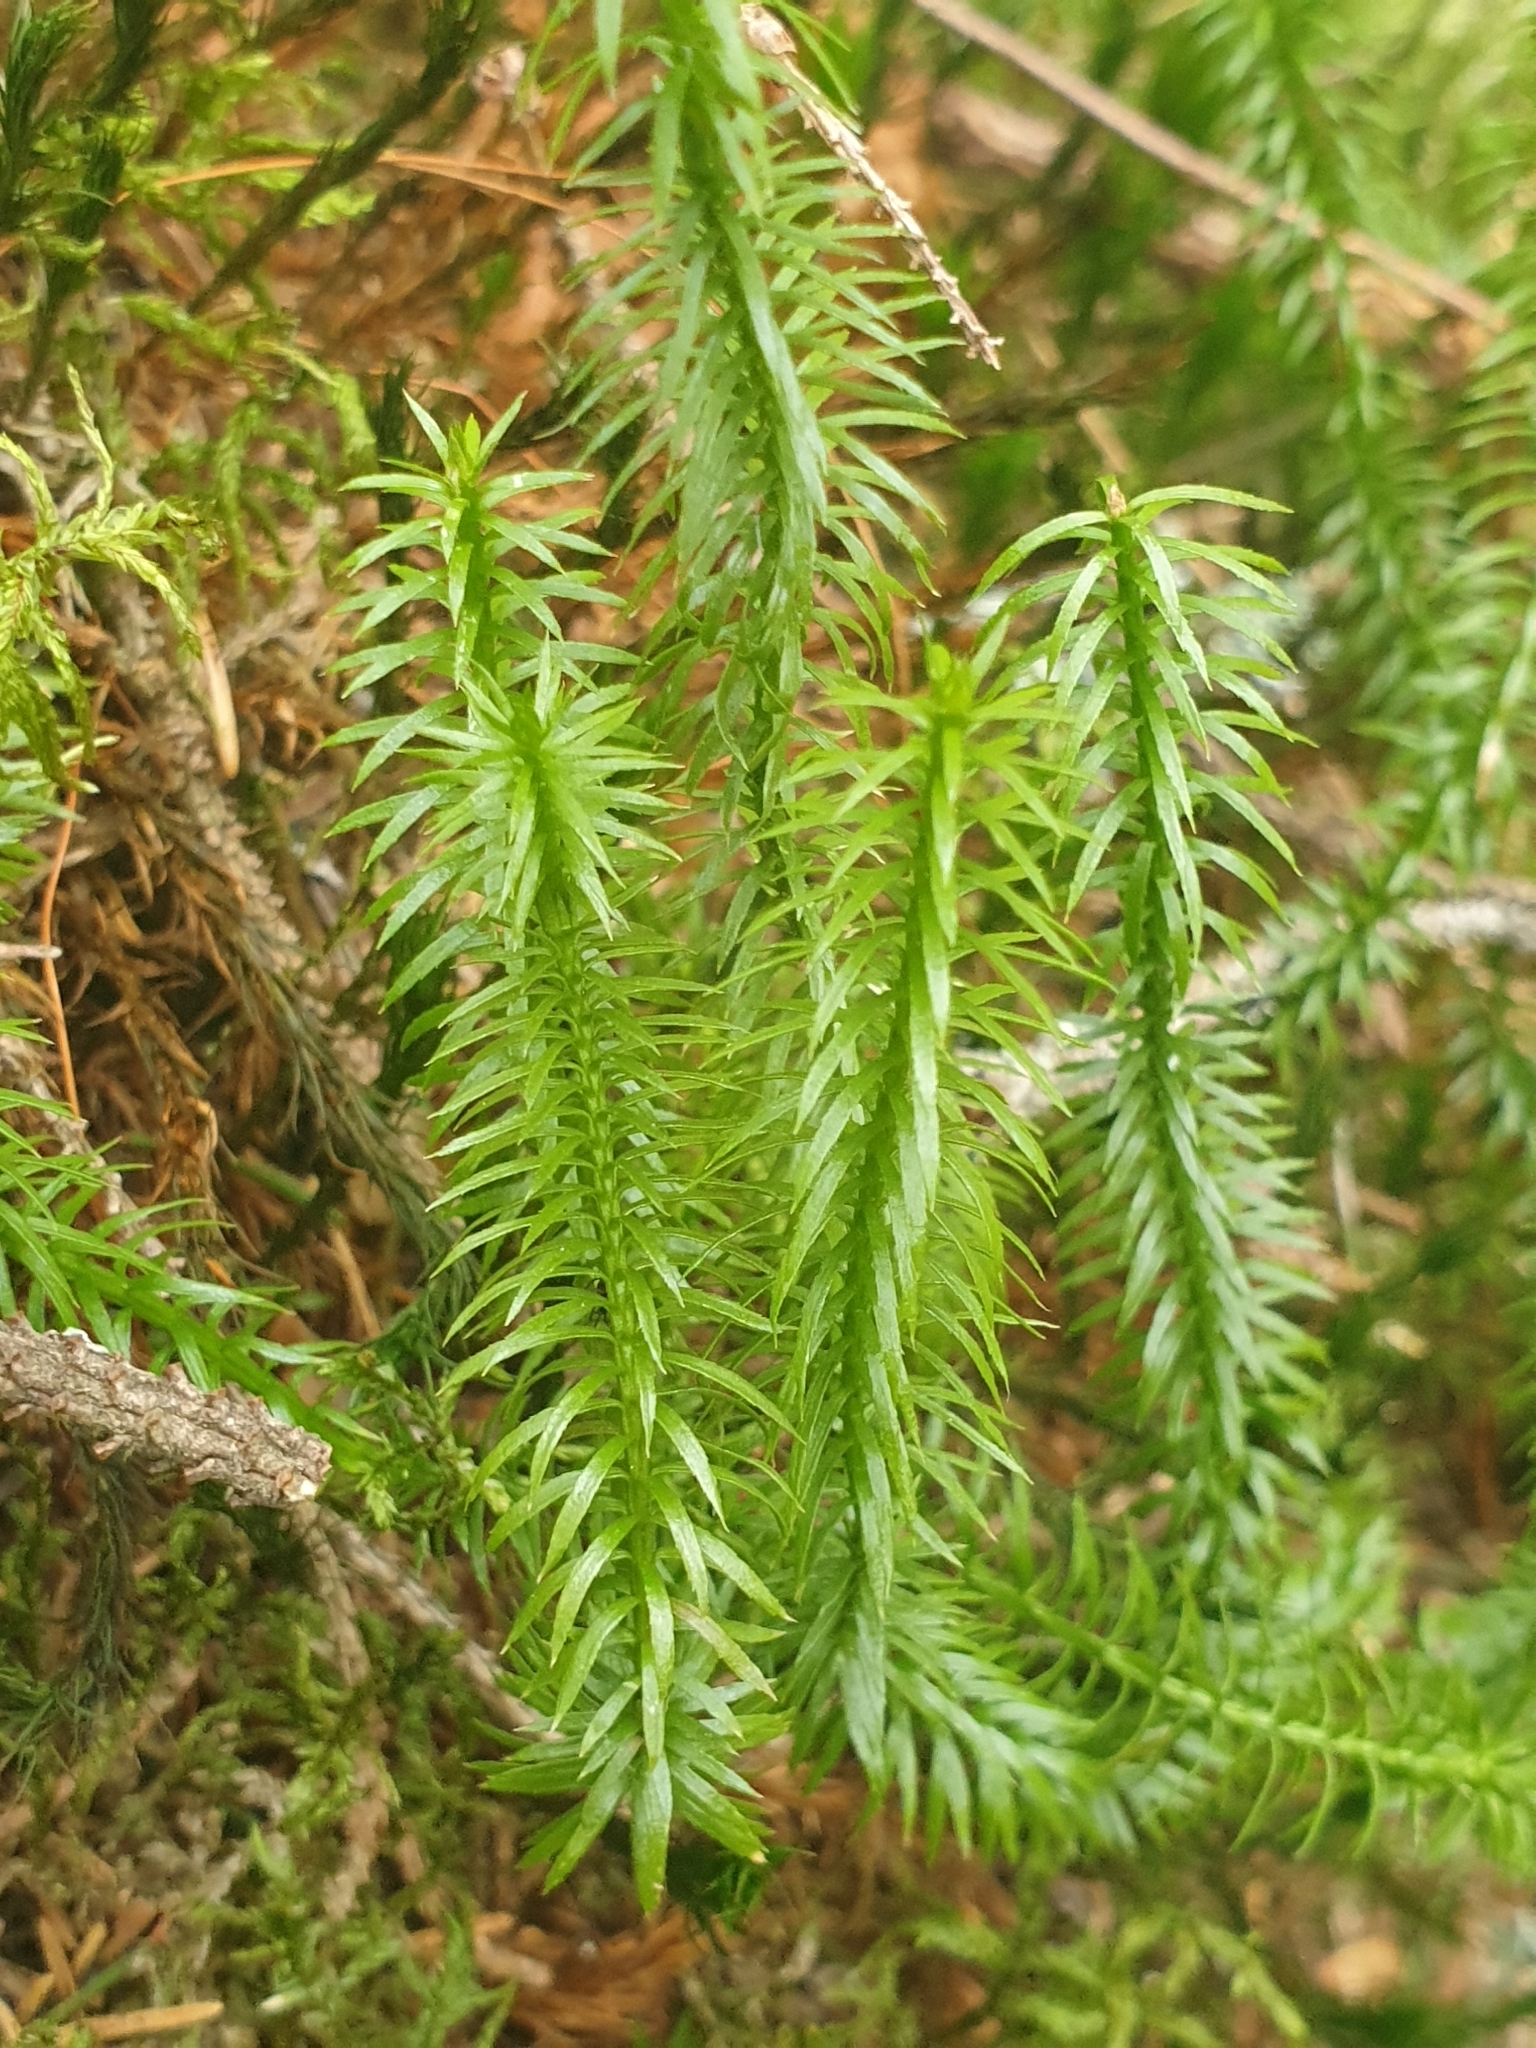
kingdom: Plantae
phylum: Tracheophyta
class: Lycopodiopsida
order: Lycopodiales
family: Lycopodiaceae
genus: Spinulum
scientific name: Spinulum annotinum
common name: Interrupted club-moss
